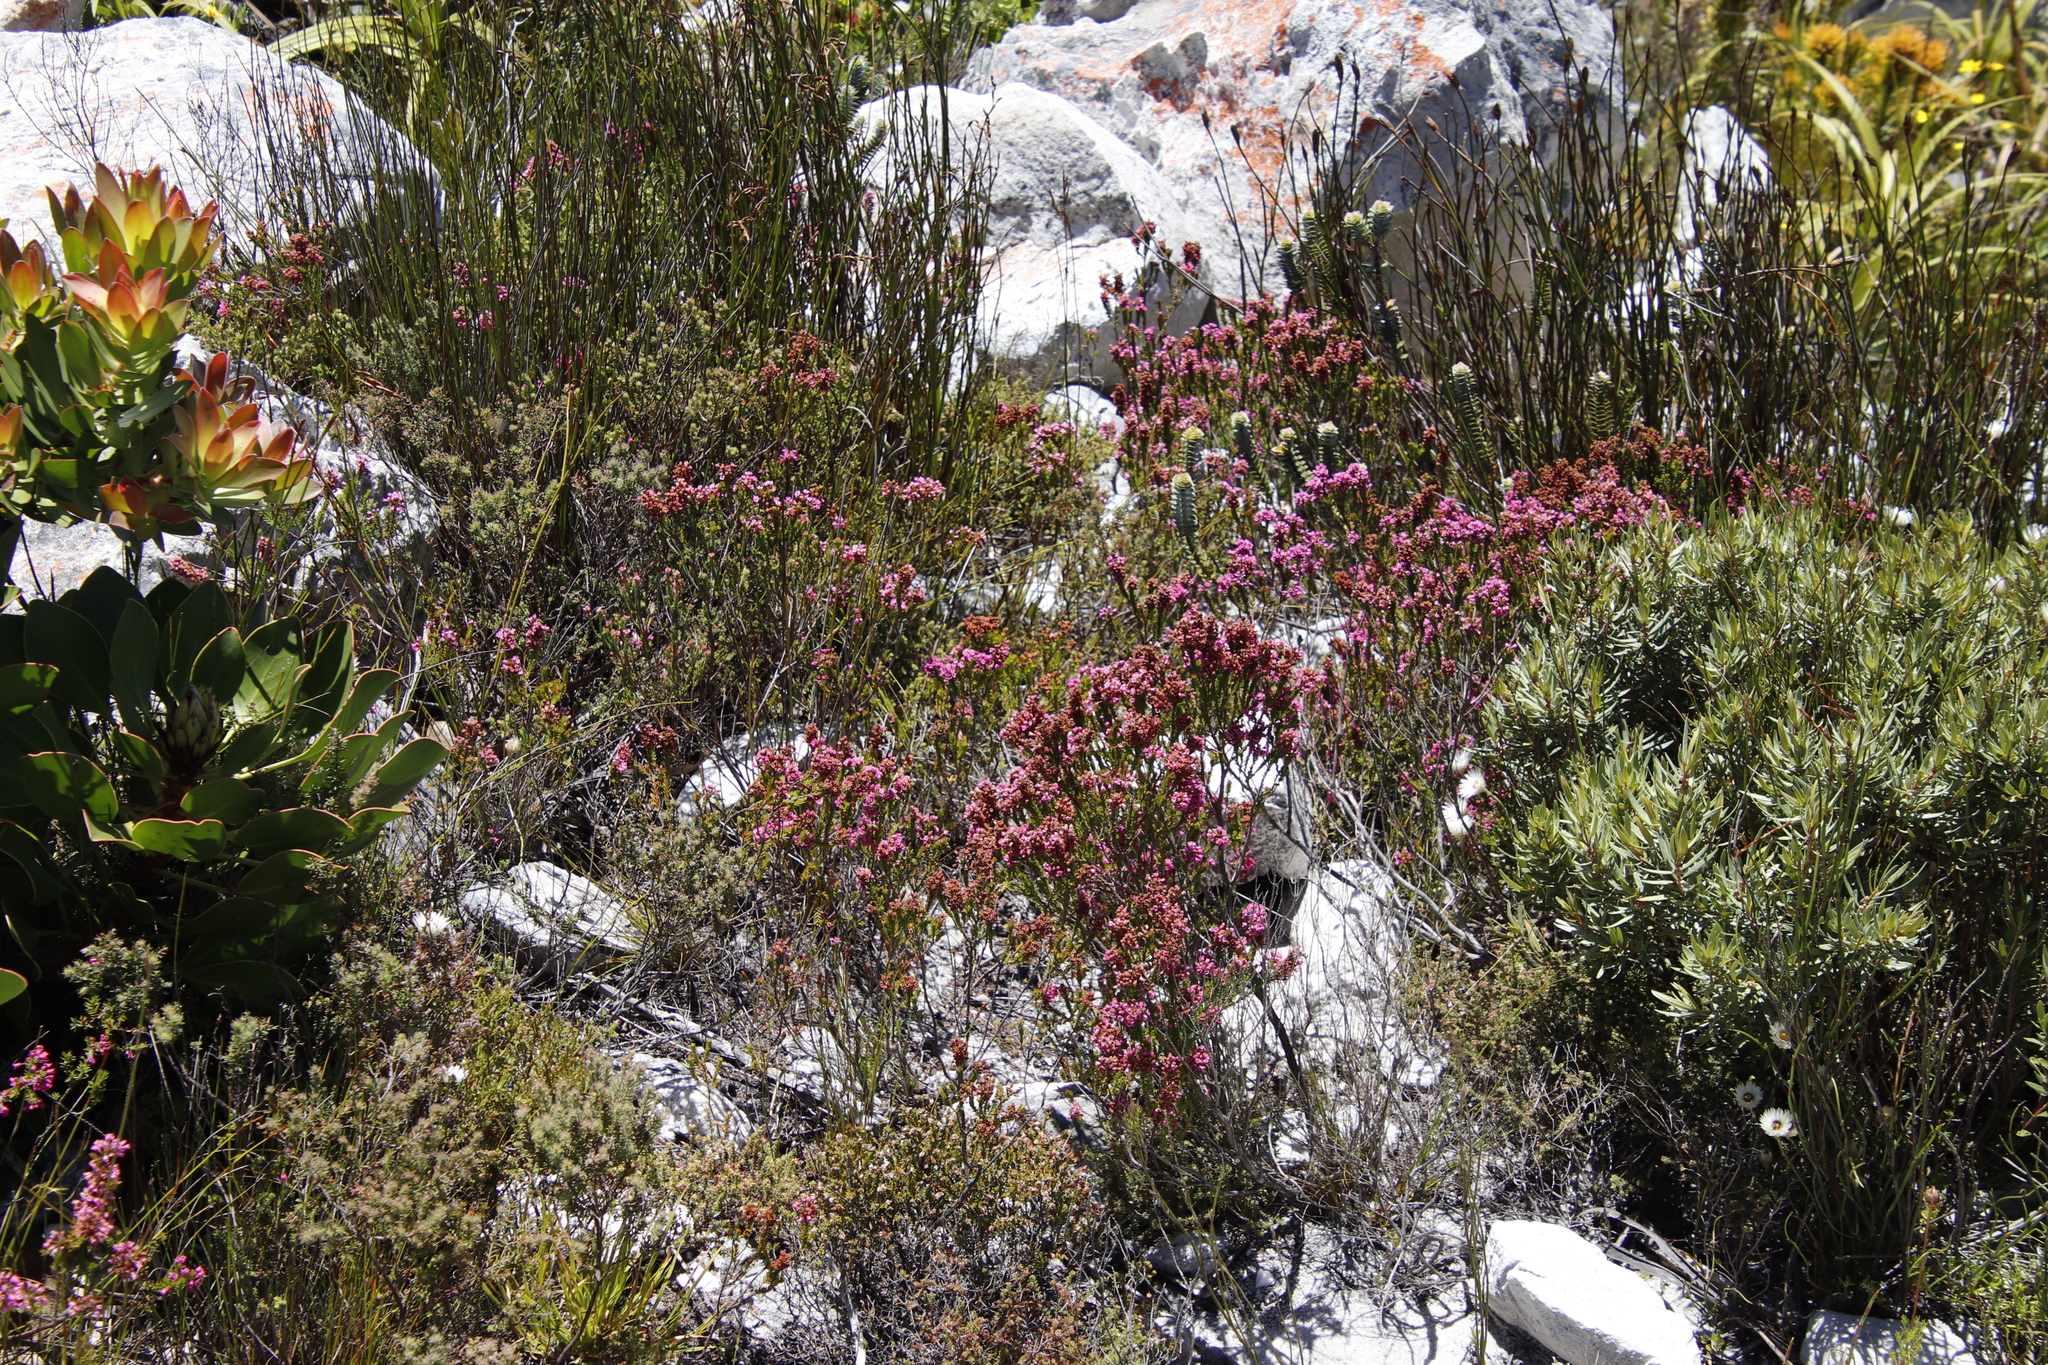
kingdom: Plantae
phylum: Tracheophyta
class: Magnoliopsida
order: Ericales
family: Ericaceae
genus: Erica
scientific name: Erica pulchella
